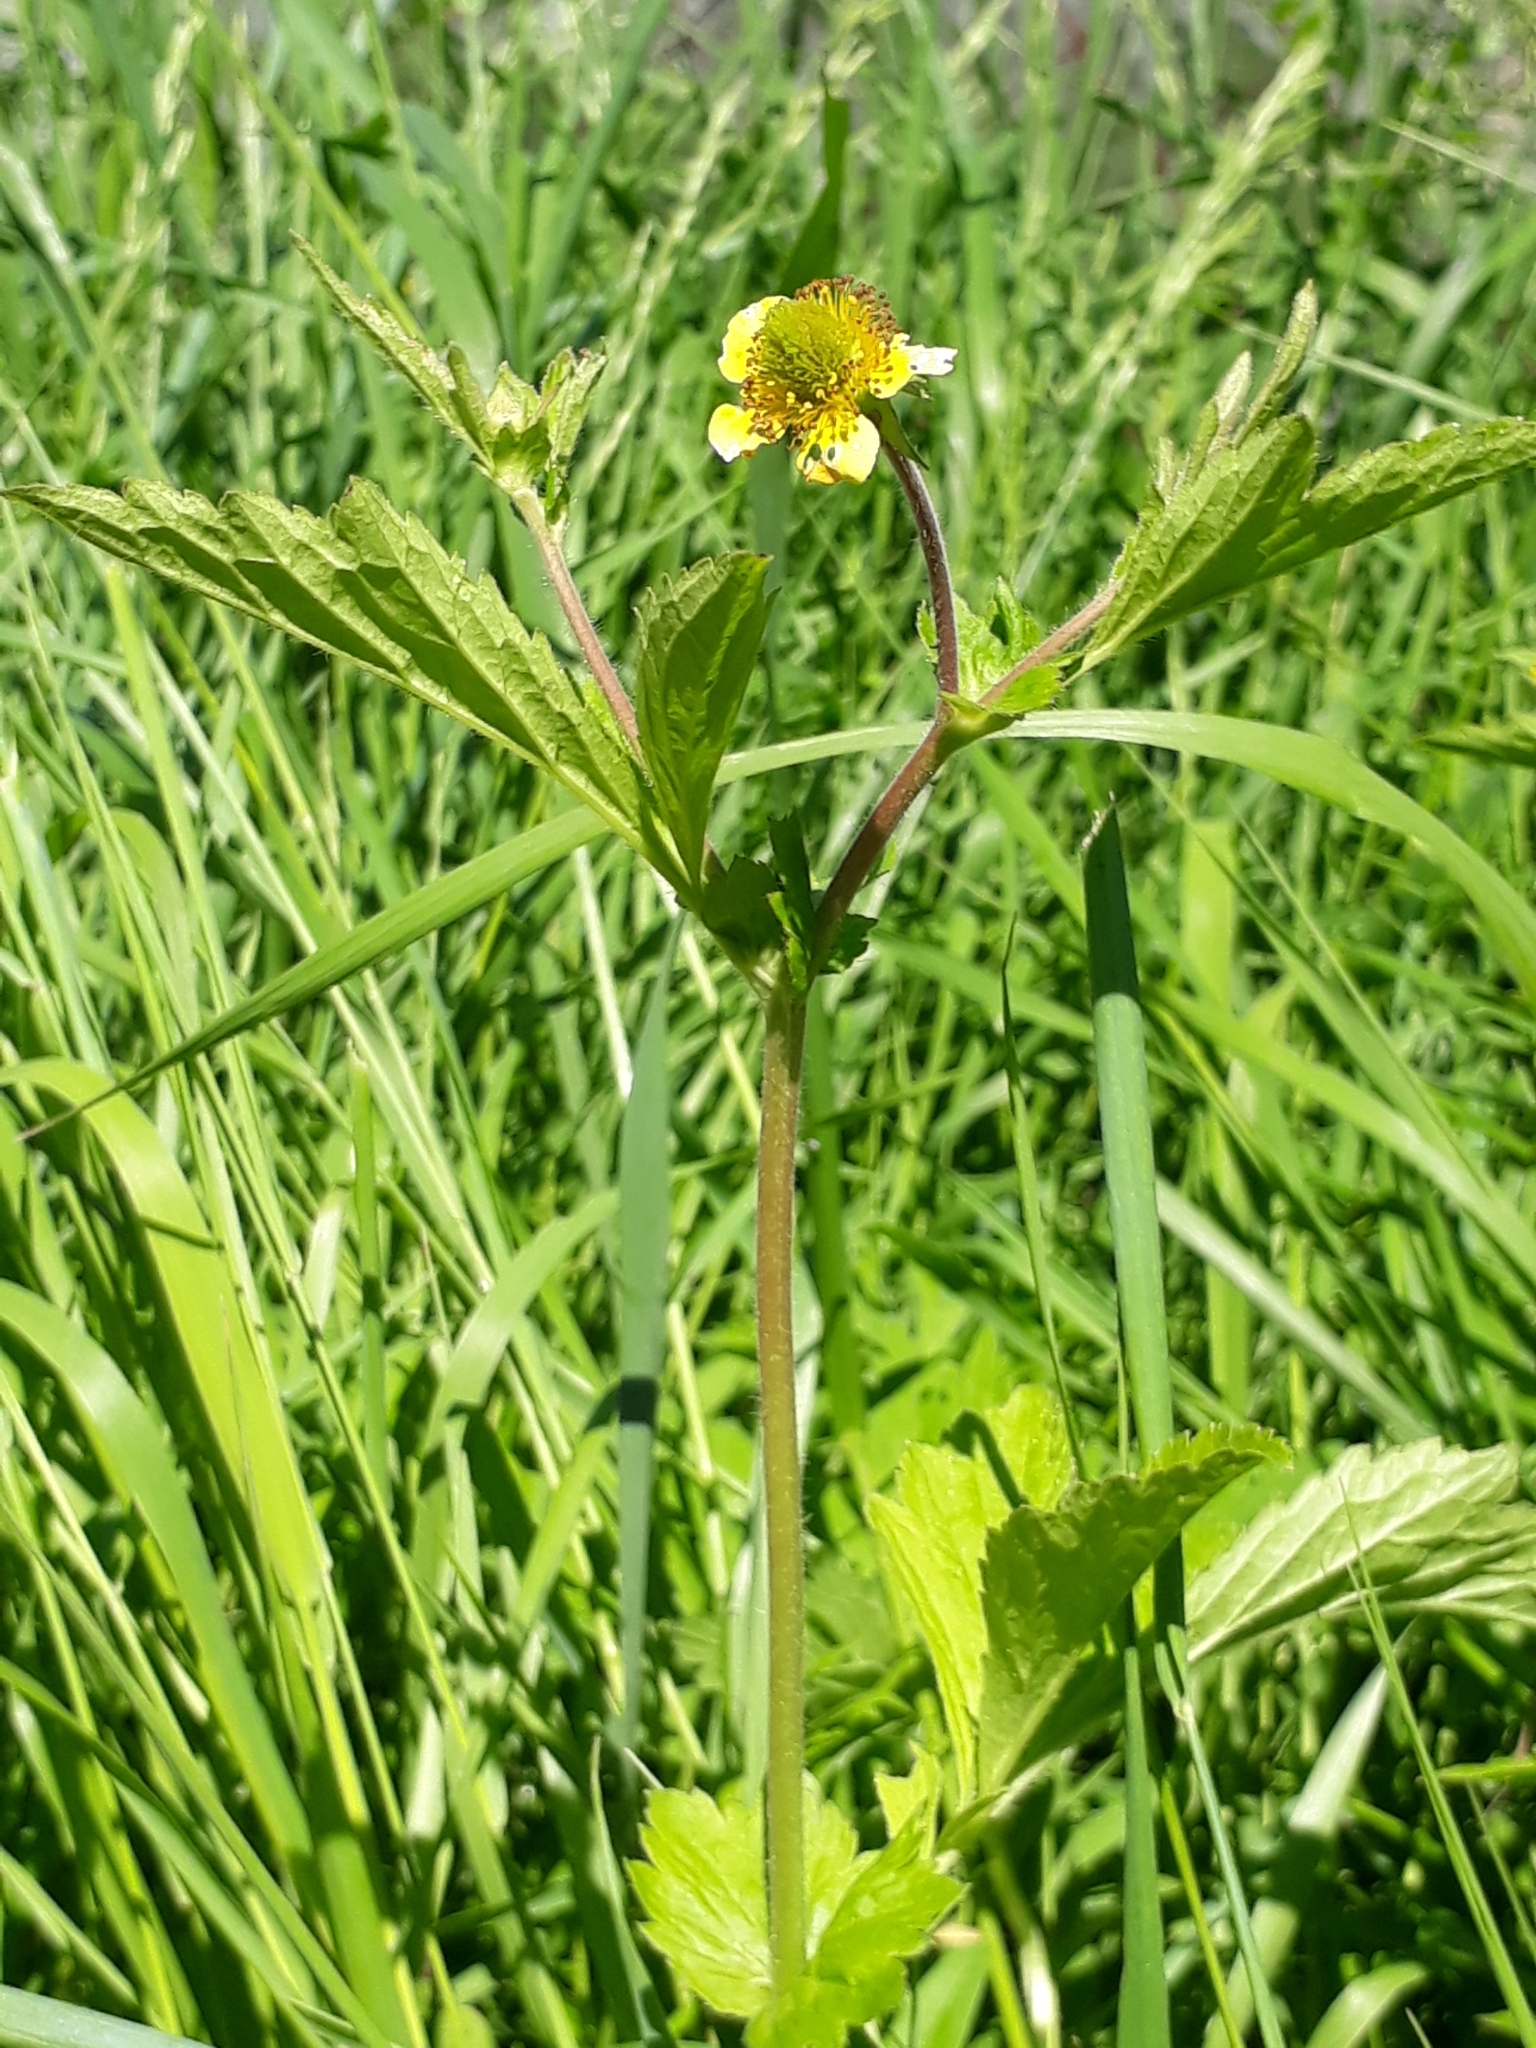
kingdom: Plantae
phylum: Tracheophyta
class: Magnoliopsida
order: Rosales
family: Rosaceae
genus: Geum
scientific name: Geum aleppicum
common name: Yellow avens
